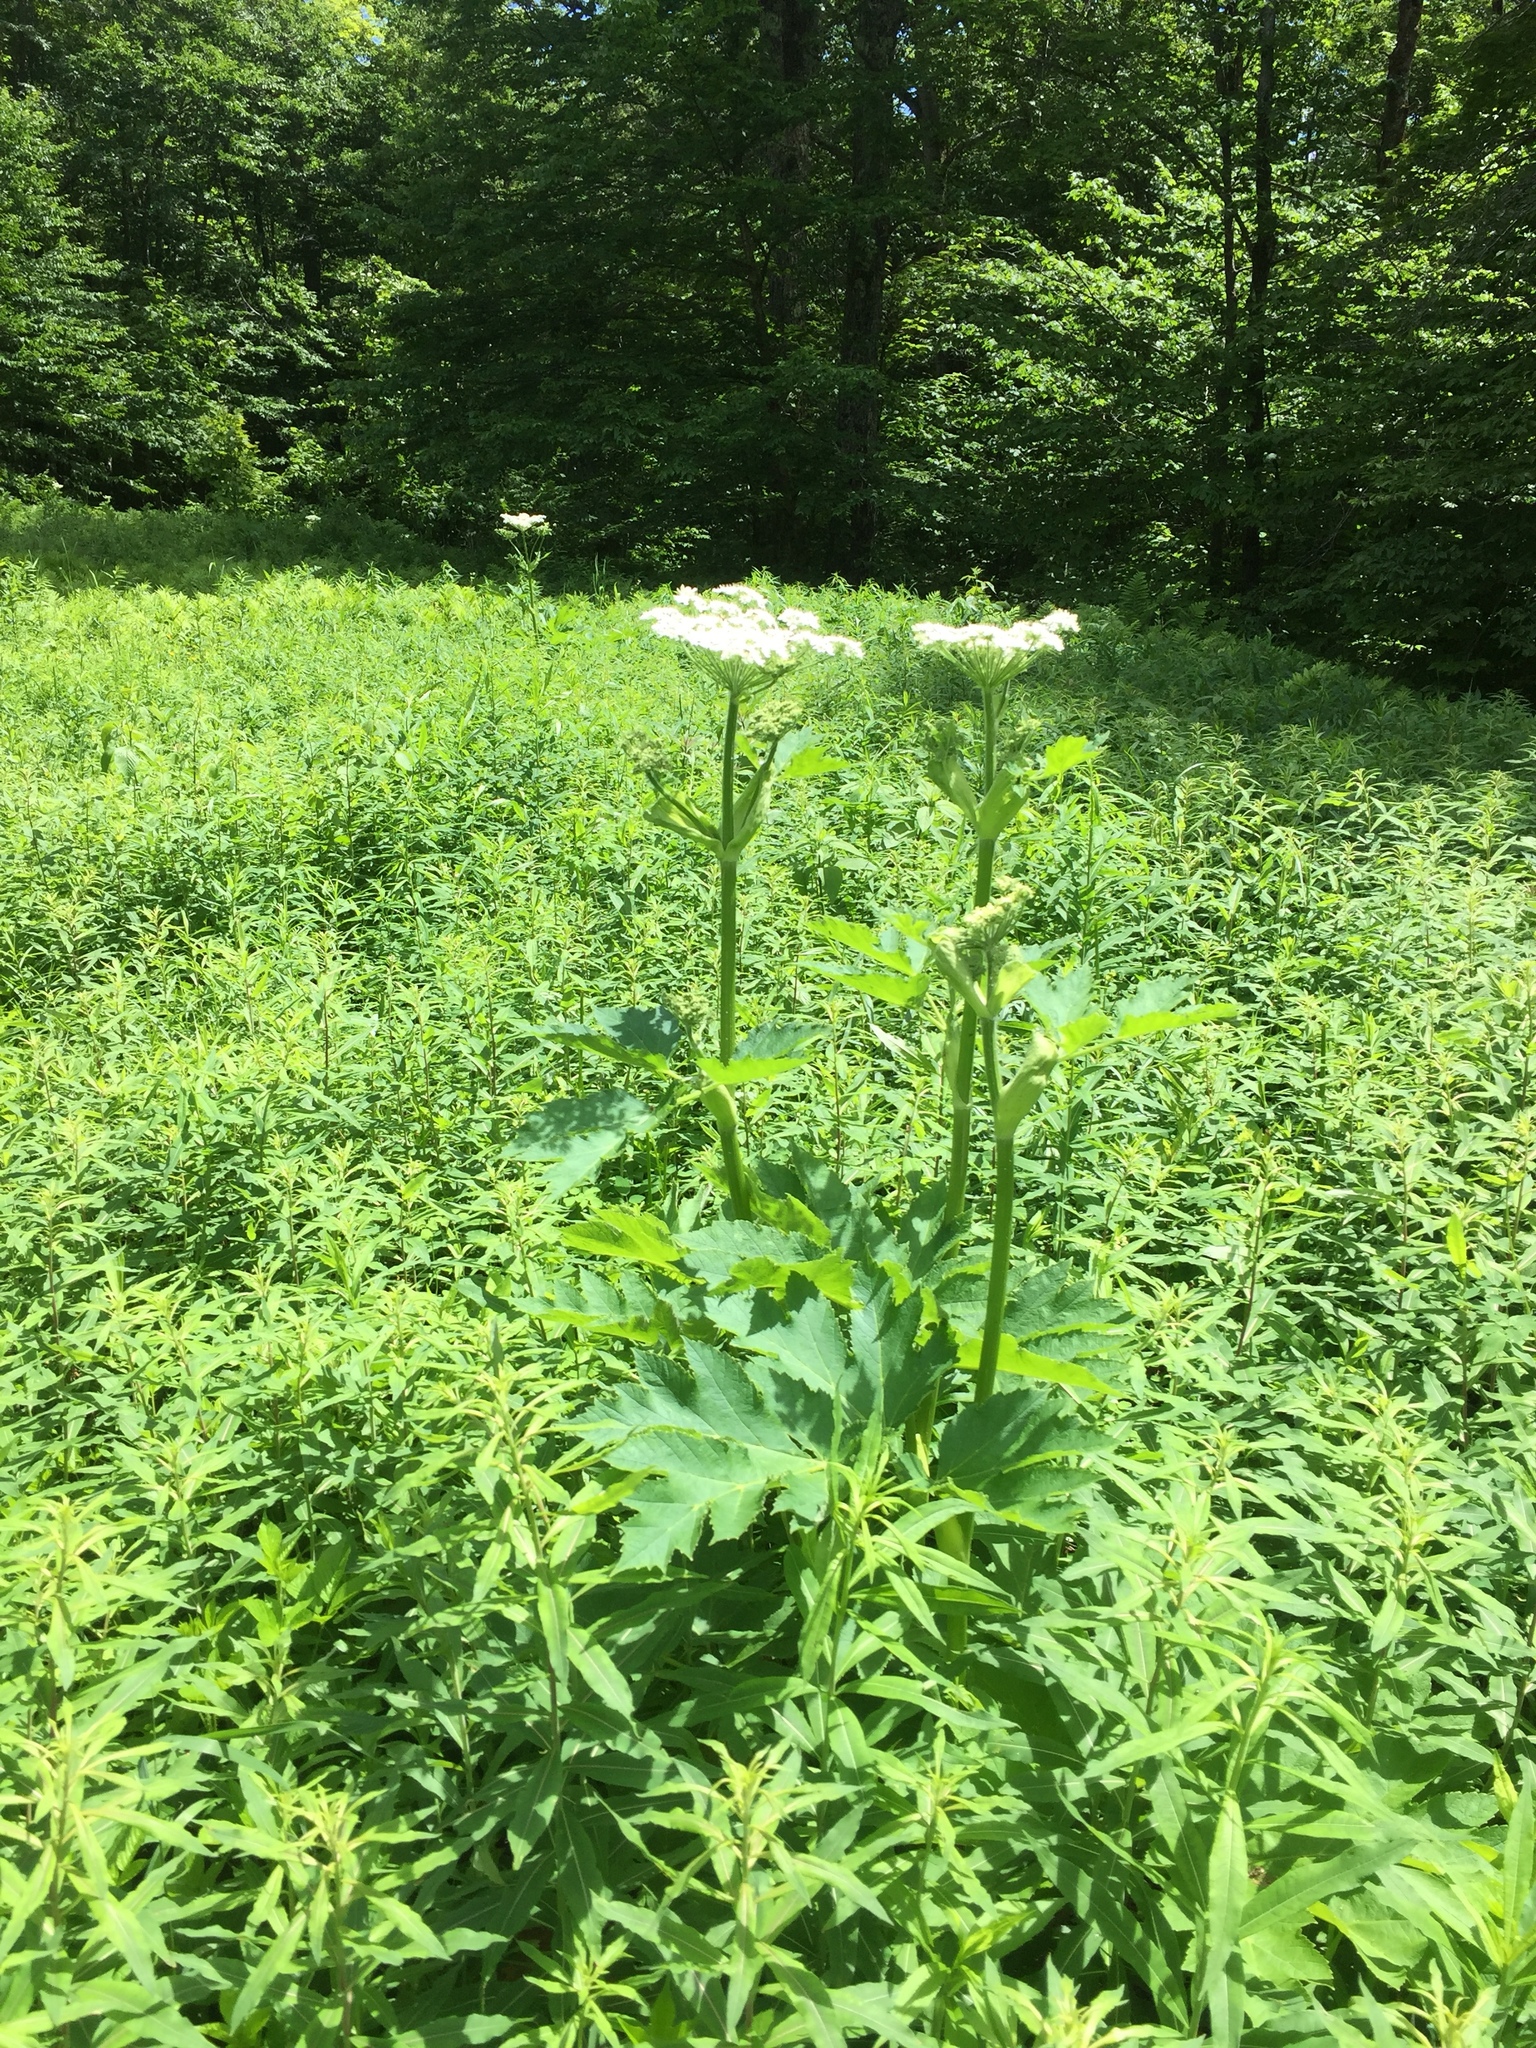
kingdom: Plantae
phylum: Tracheophyta
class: Magnoliopsida
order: Apiales
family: Apiaceae
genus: Heracleum
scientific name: Heracleum maximum
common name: American cow parsnip
